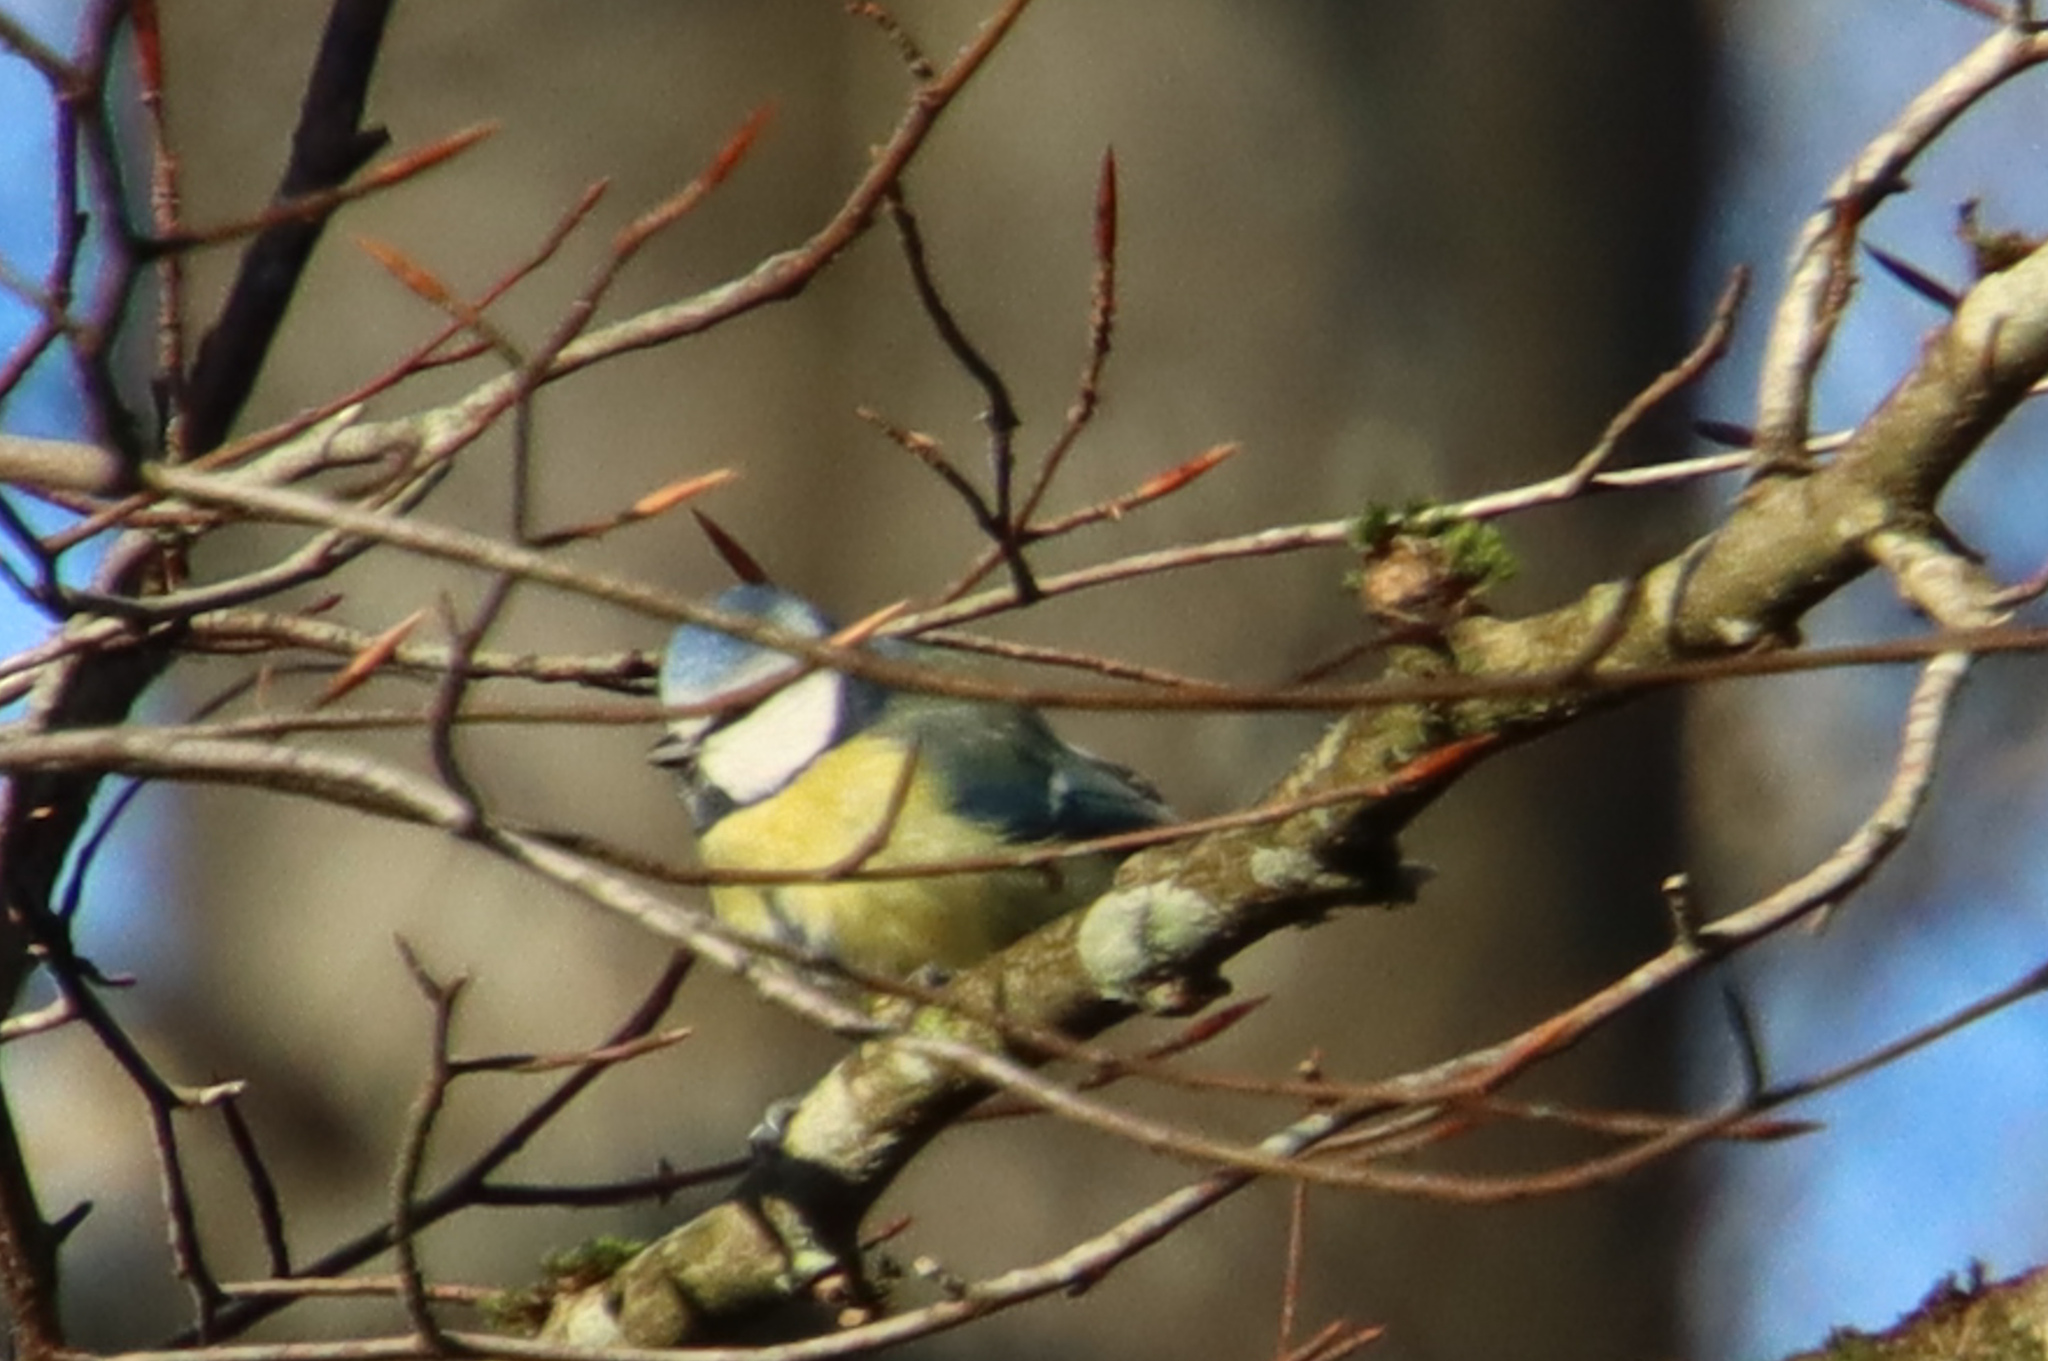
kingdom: Animalia
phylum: Chordata
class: Aves
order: Passeriformes
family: Paridae
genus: Cyanistes
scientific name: Cyanistes caeruleus
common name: Eurasian blue tit
